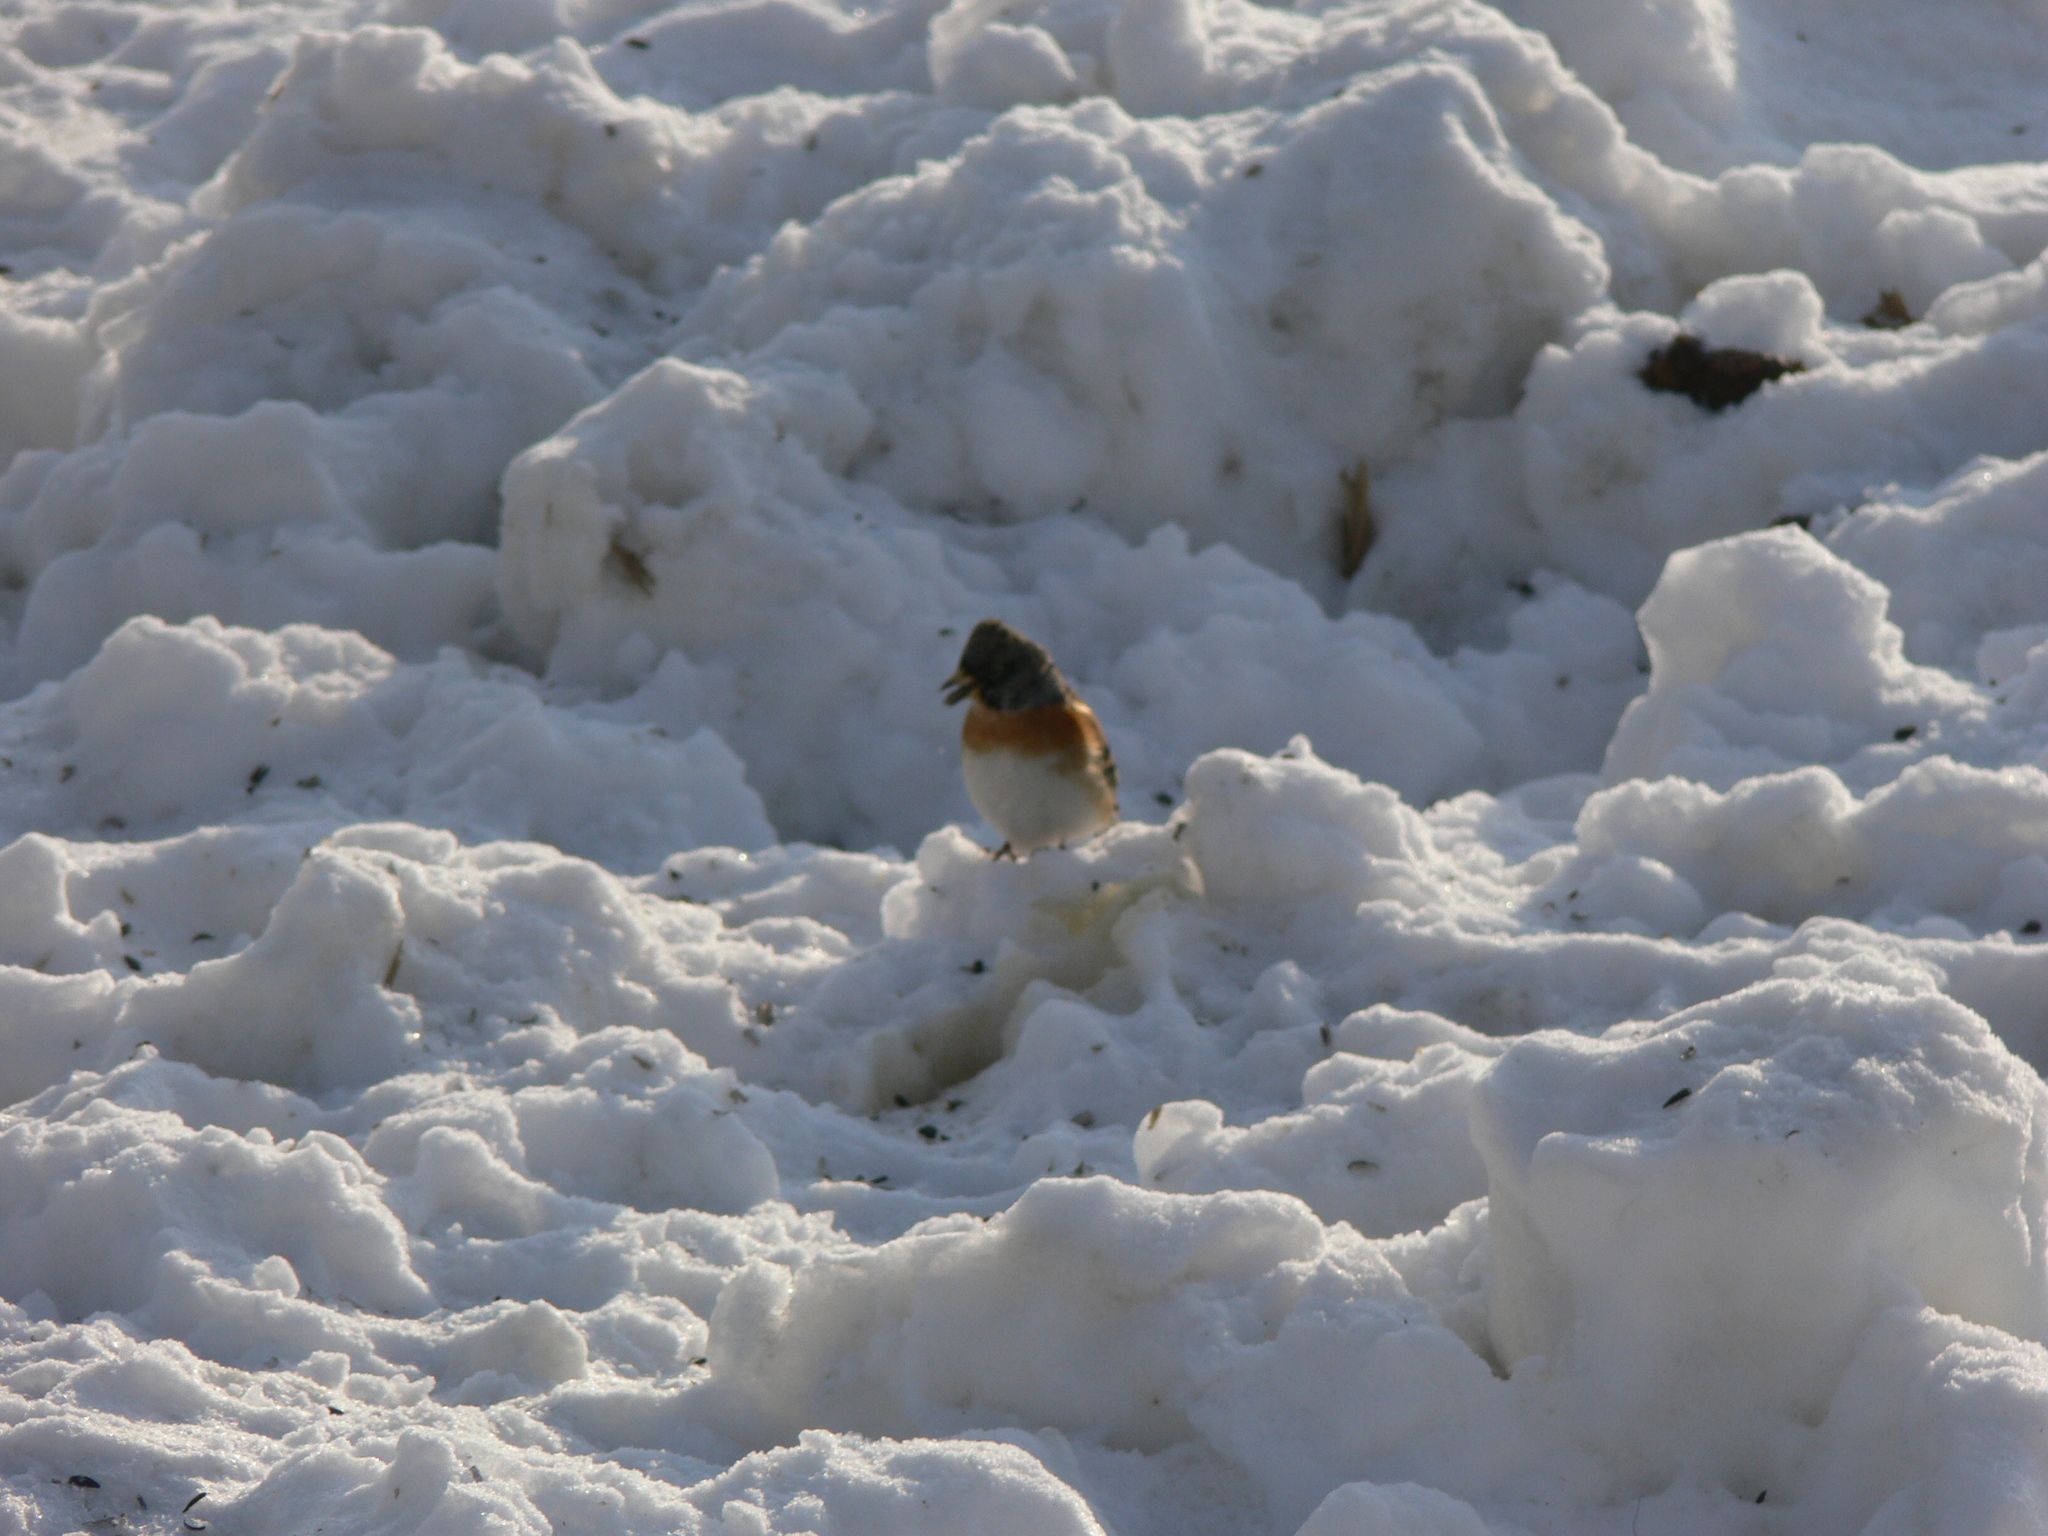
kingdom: Animalia
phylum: Chordata
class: Aves
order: Passeriformes
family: Fringillidae
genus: Fringilla
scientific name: Fringilla montifringilla
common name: Brambling
